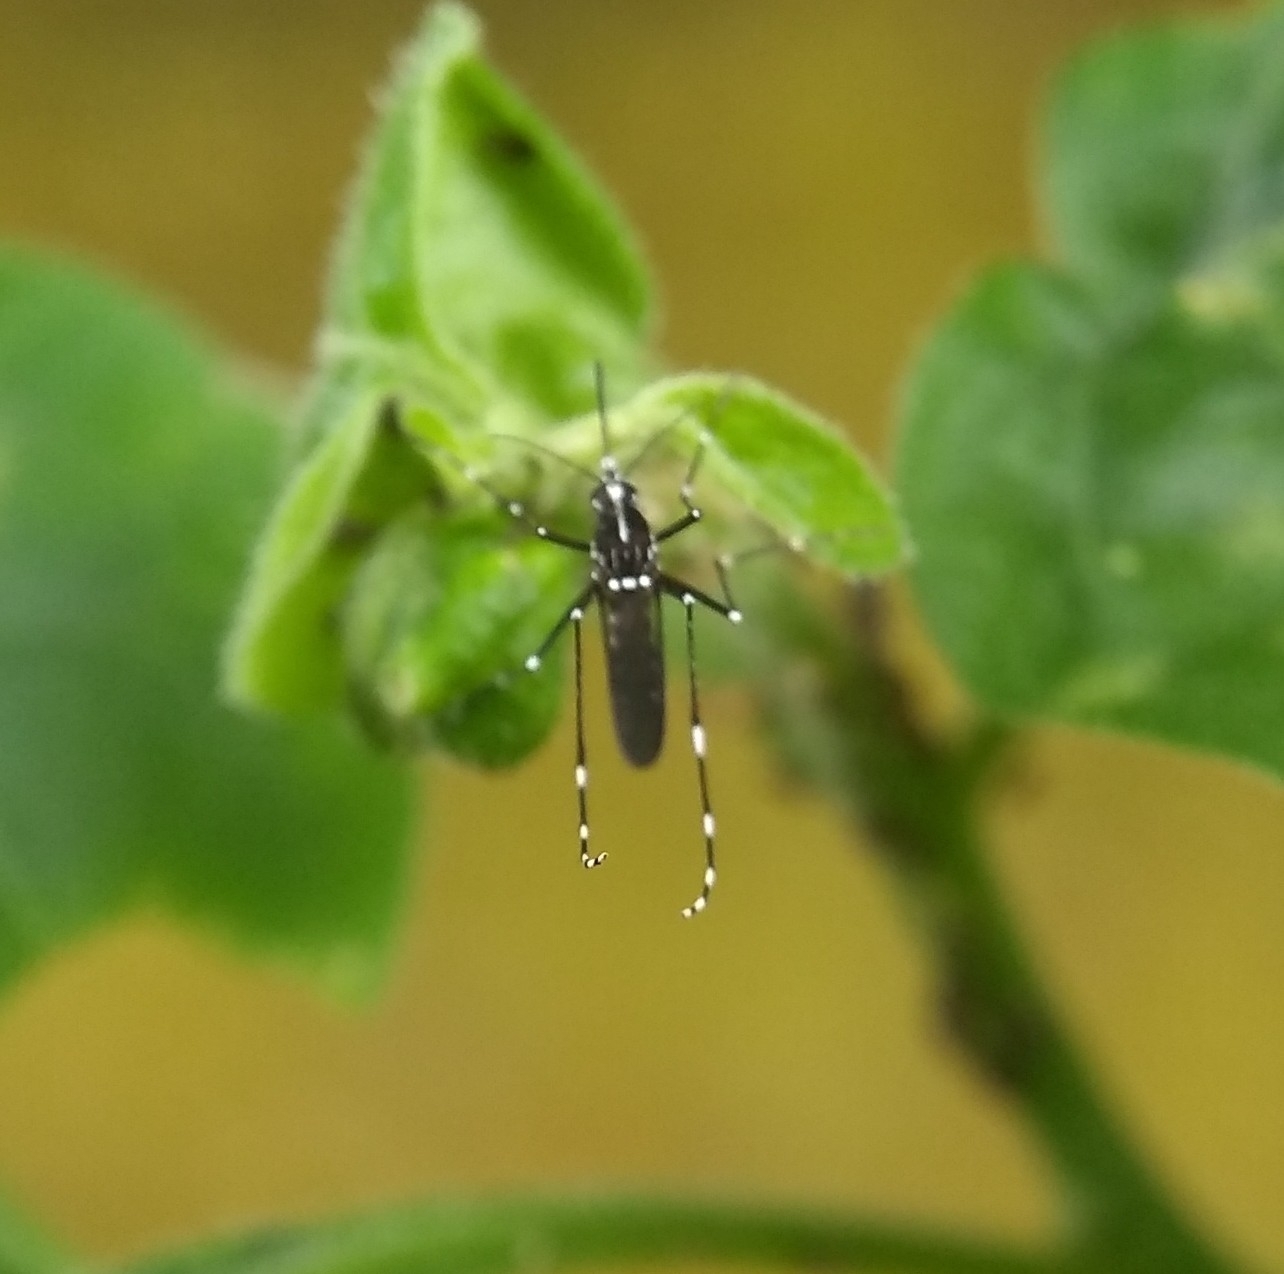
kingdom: Animalia
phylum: Arthropoda
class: Insecta
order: Diptera
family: Culicidae
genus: Aedes
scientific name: Aedes albopictus
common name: Tiger mosquito
